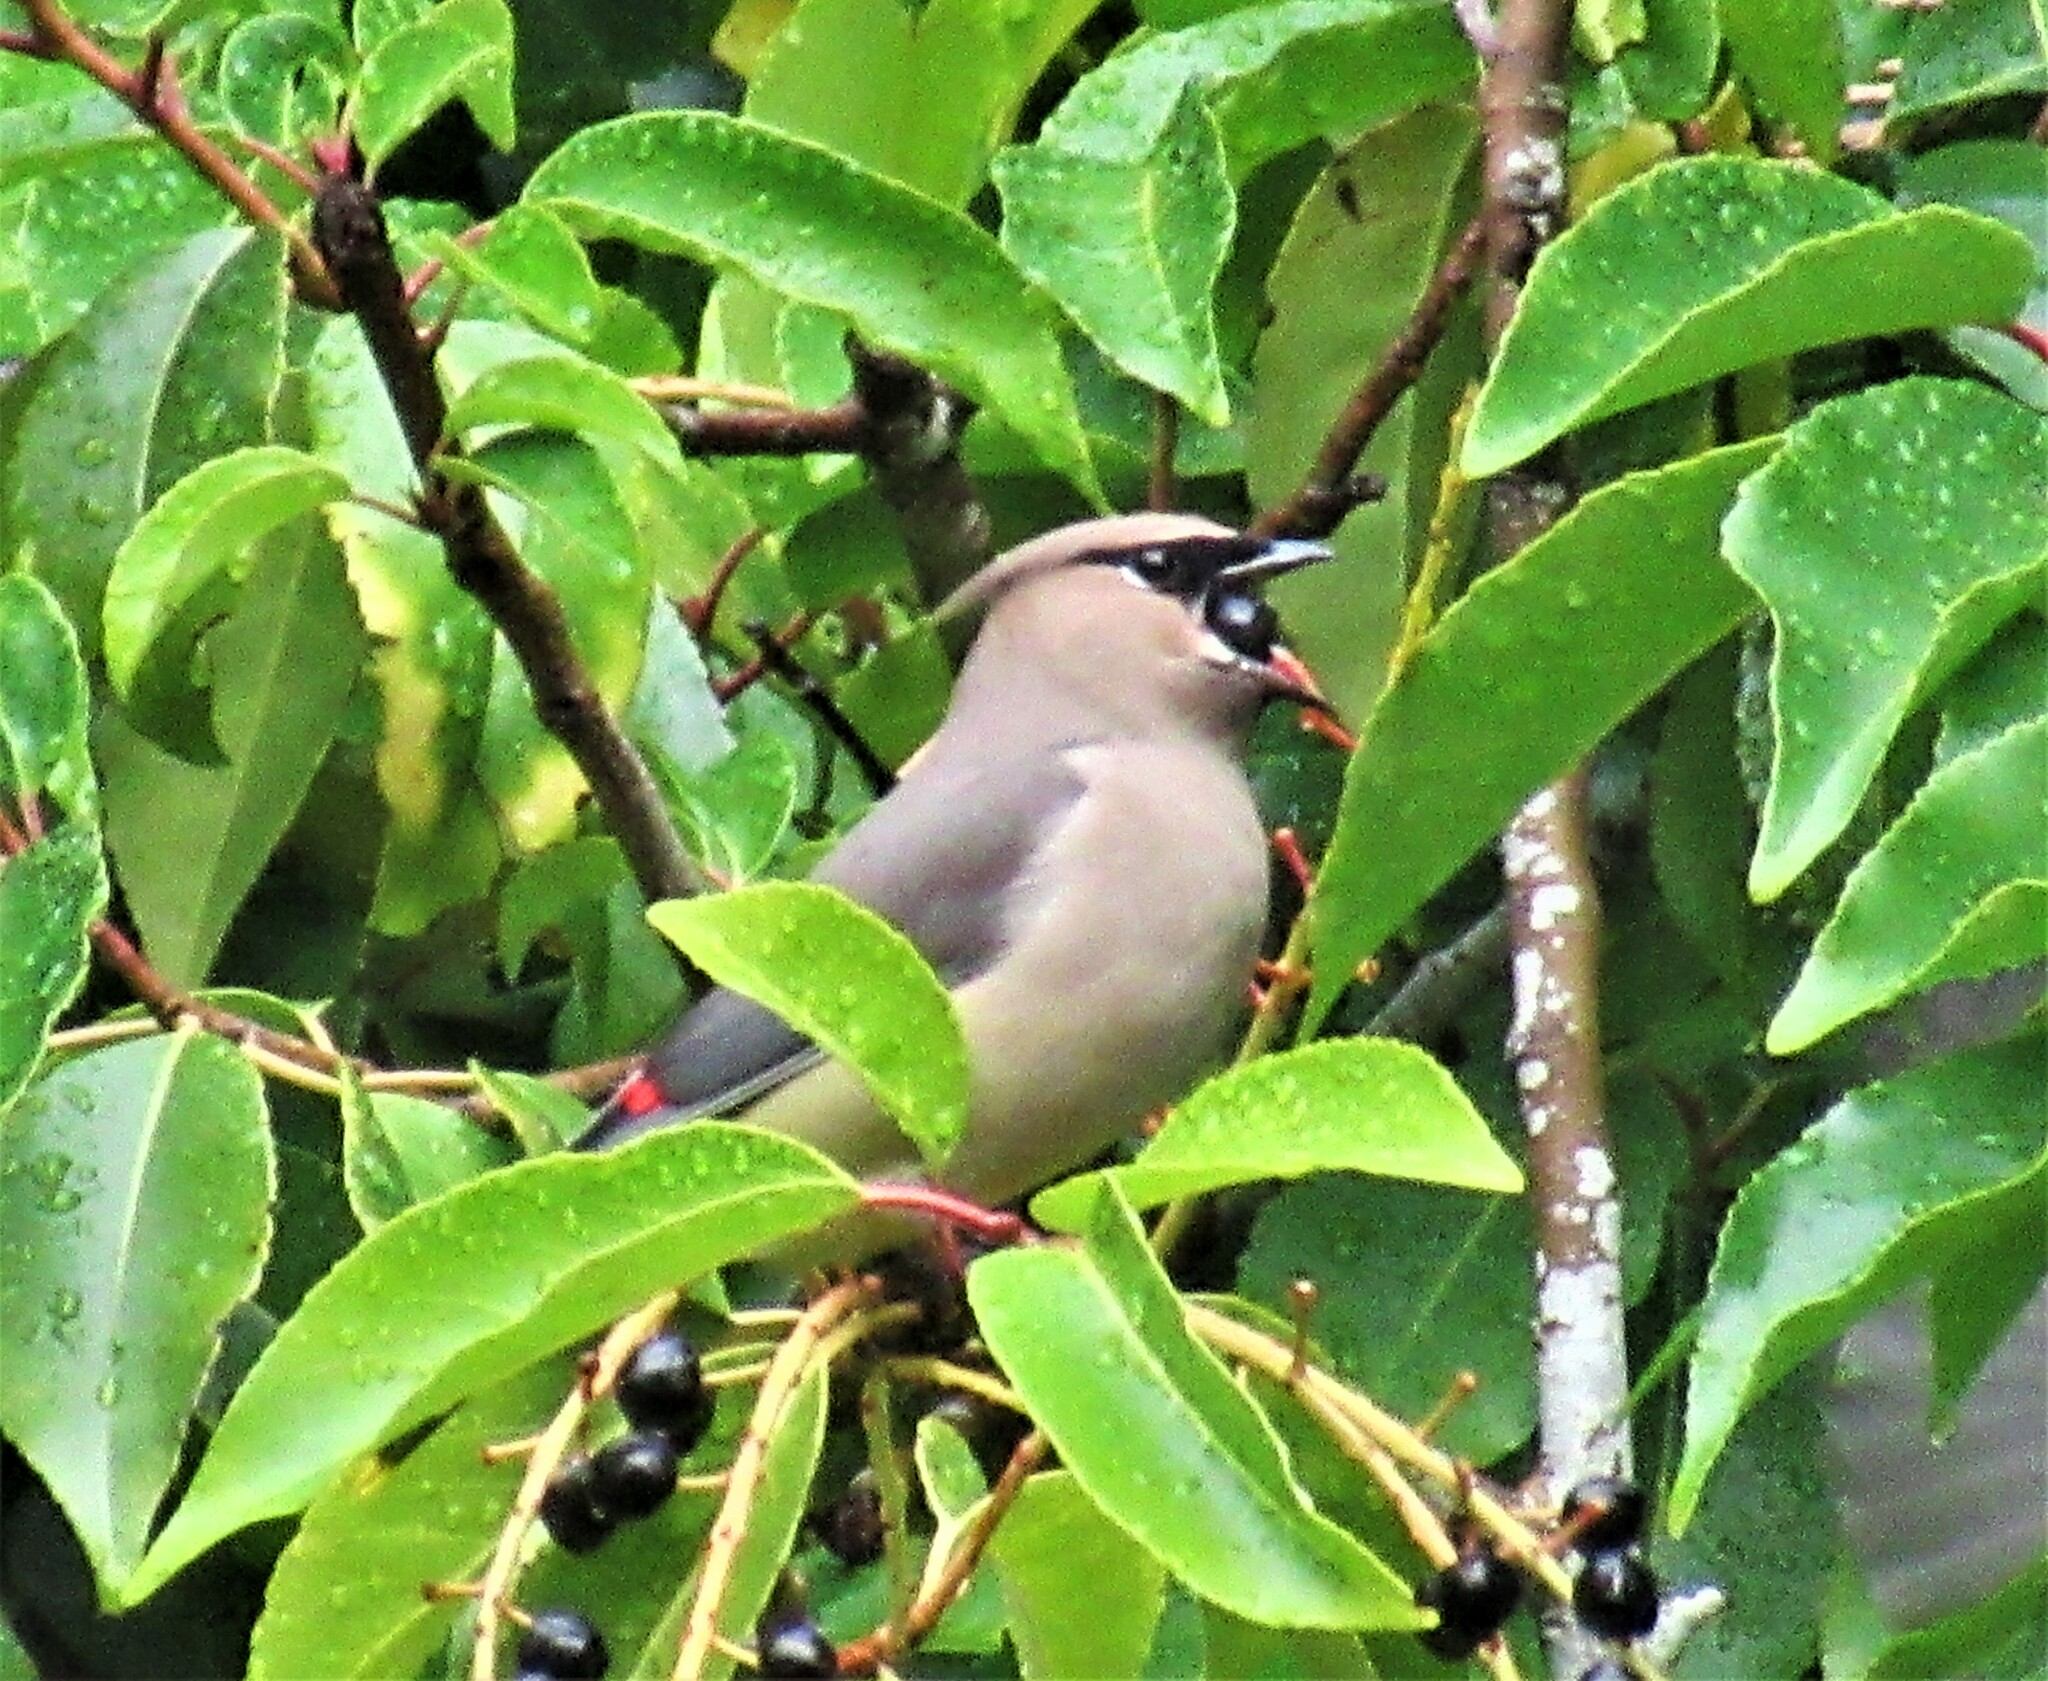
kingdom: Animalia
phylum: Chordata
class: Aves
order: Passeriformes
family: Bombycillidae
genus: Bombycilla
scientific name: Bombycilla cedrorum
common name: Cedar waxwing
